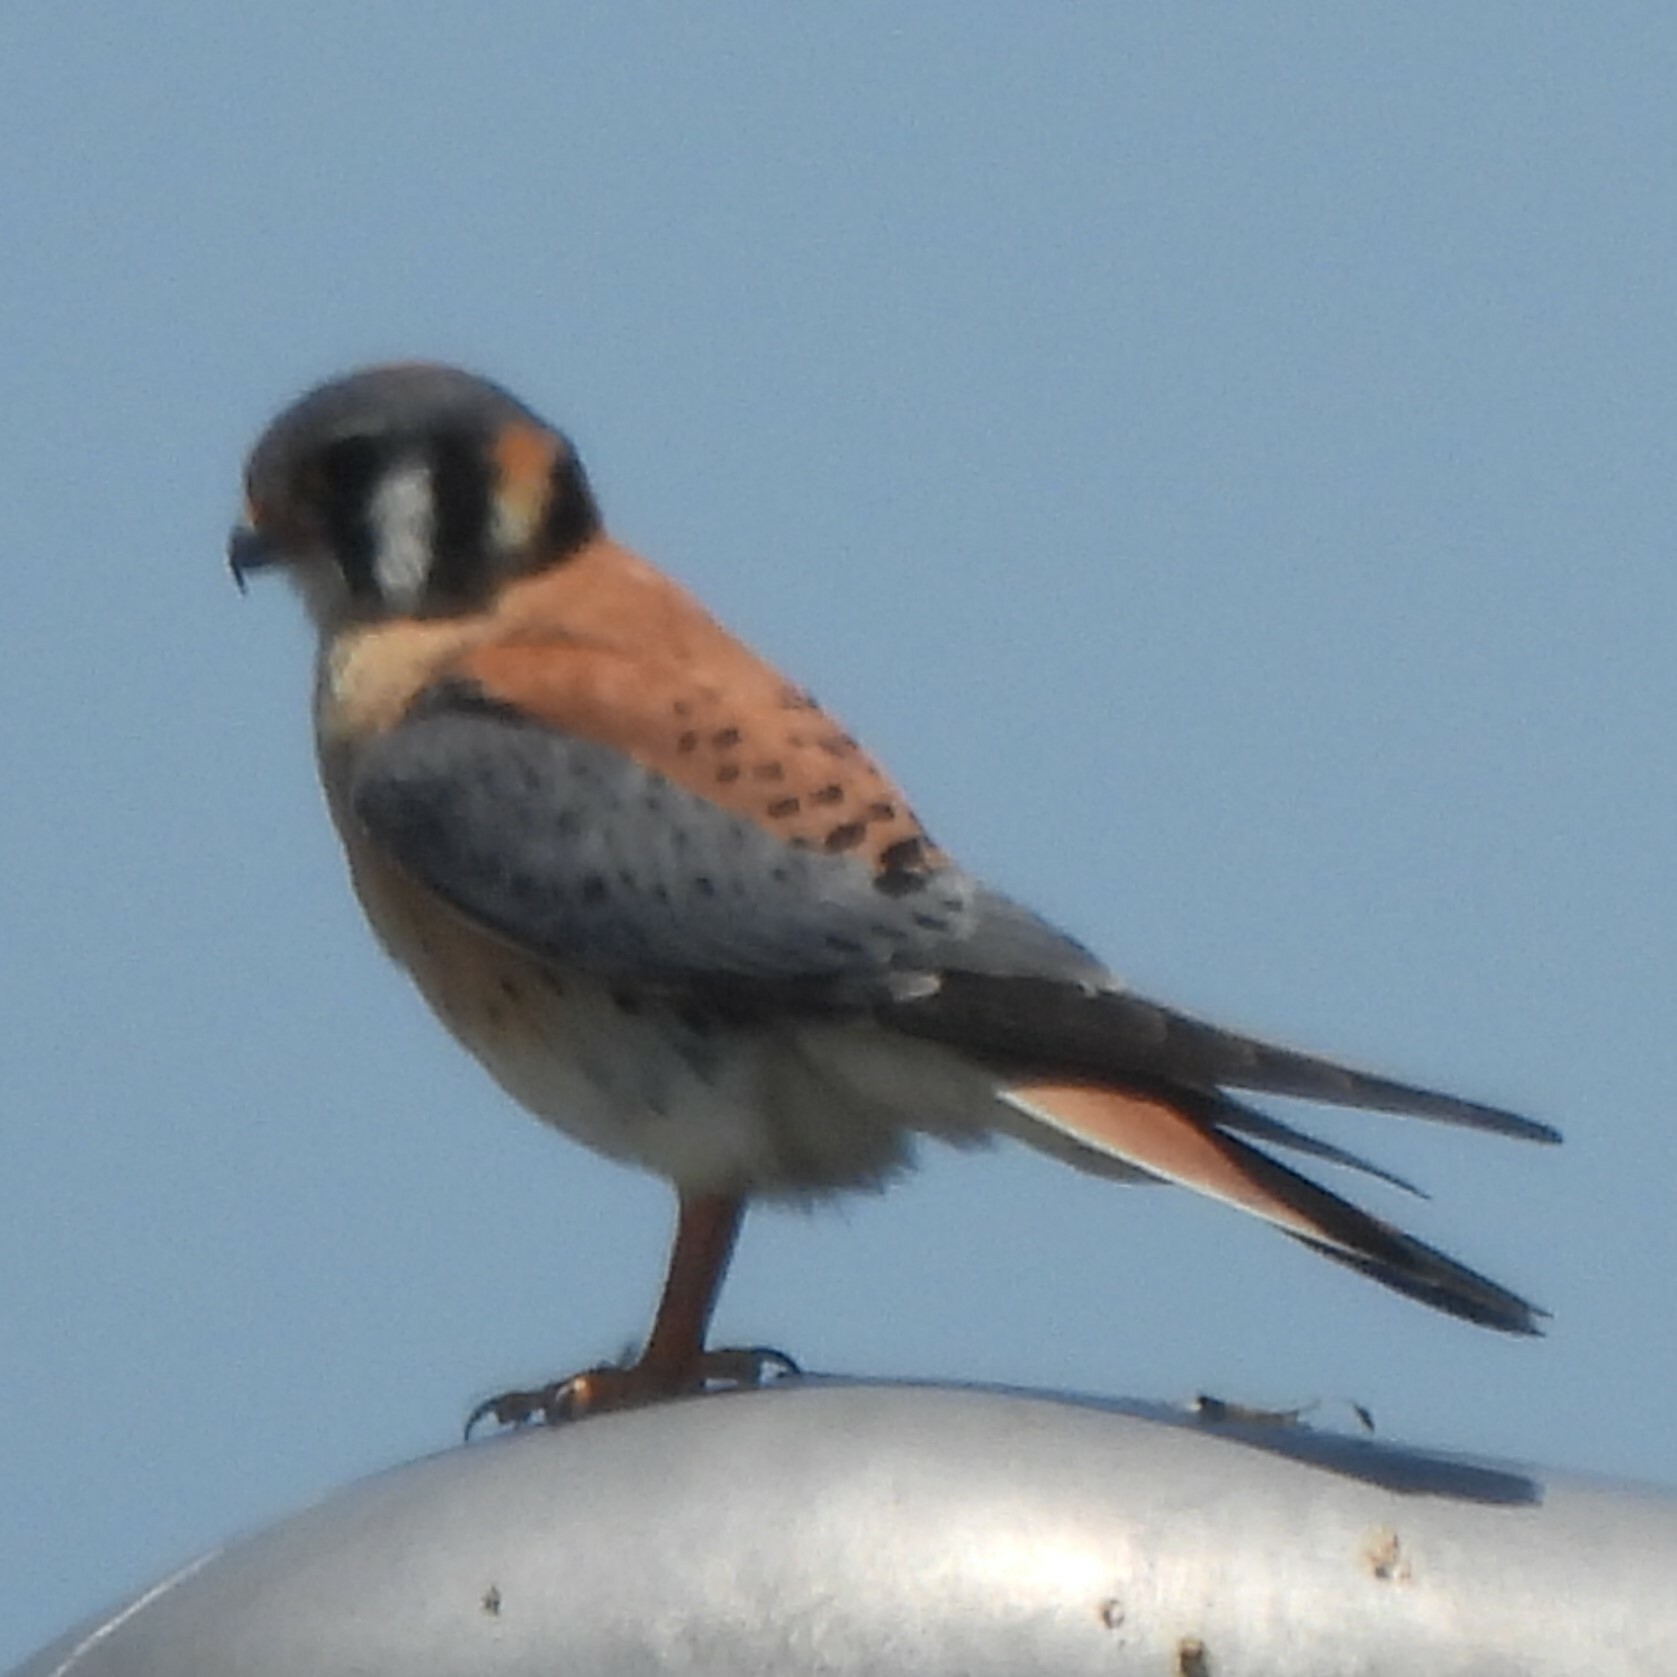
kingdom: Animalia
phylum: Chordata
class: Aves
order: Falconiformes
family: Falconidae
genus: Falco
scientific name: Falco sparverius
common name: American kestrel
